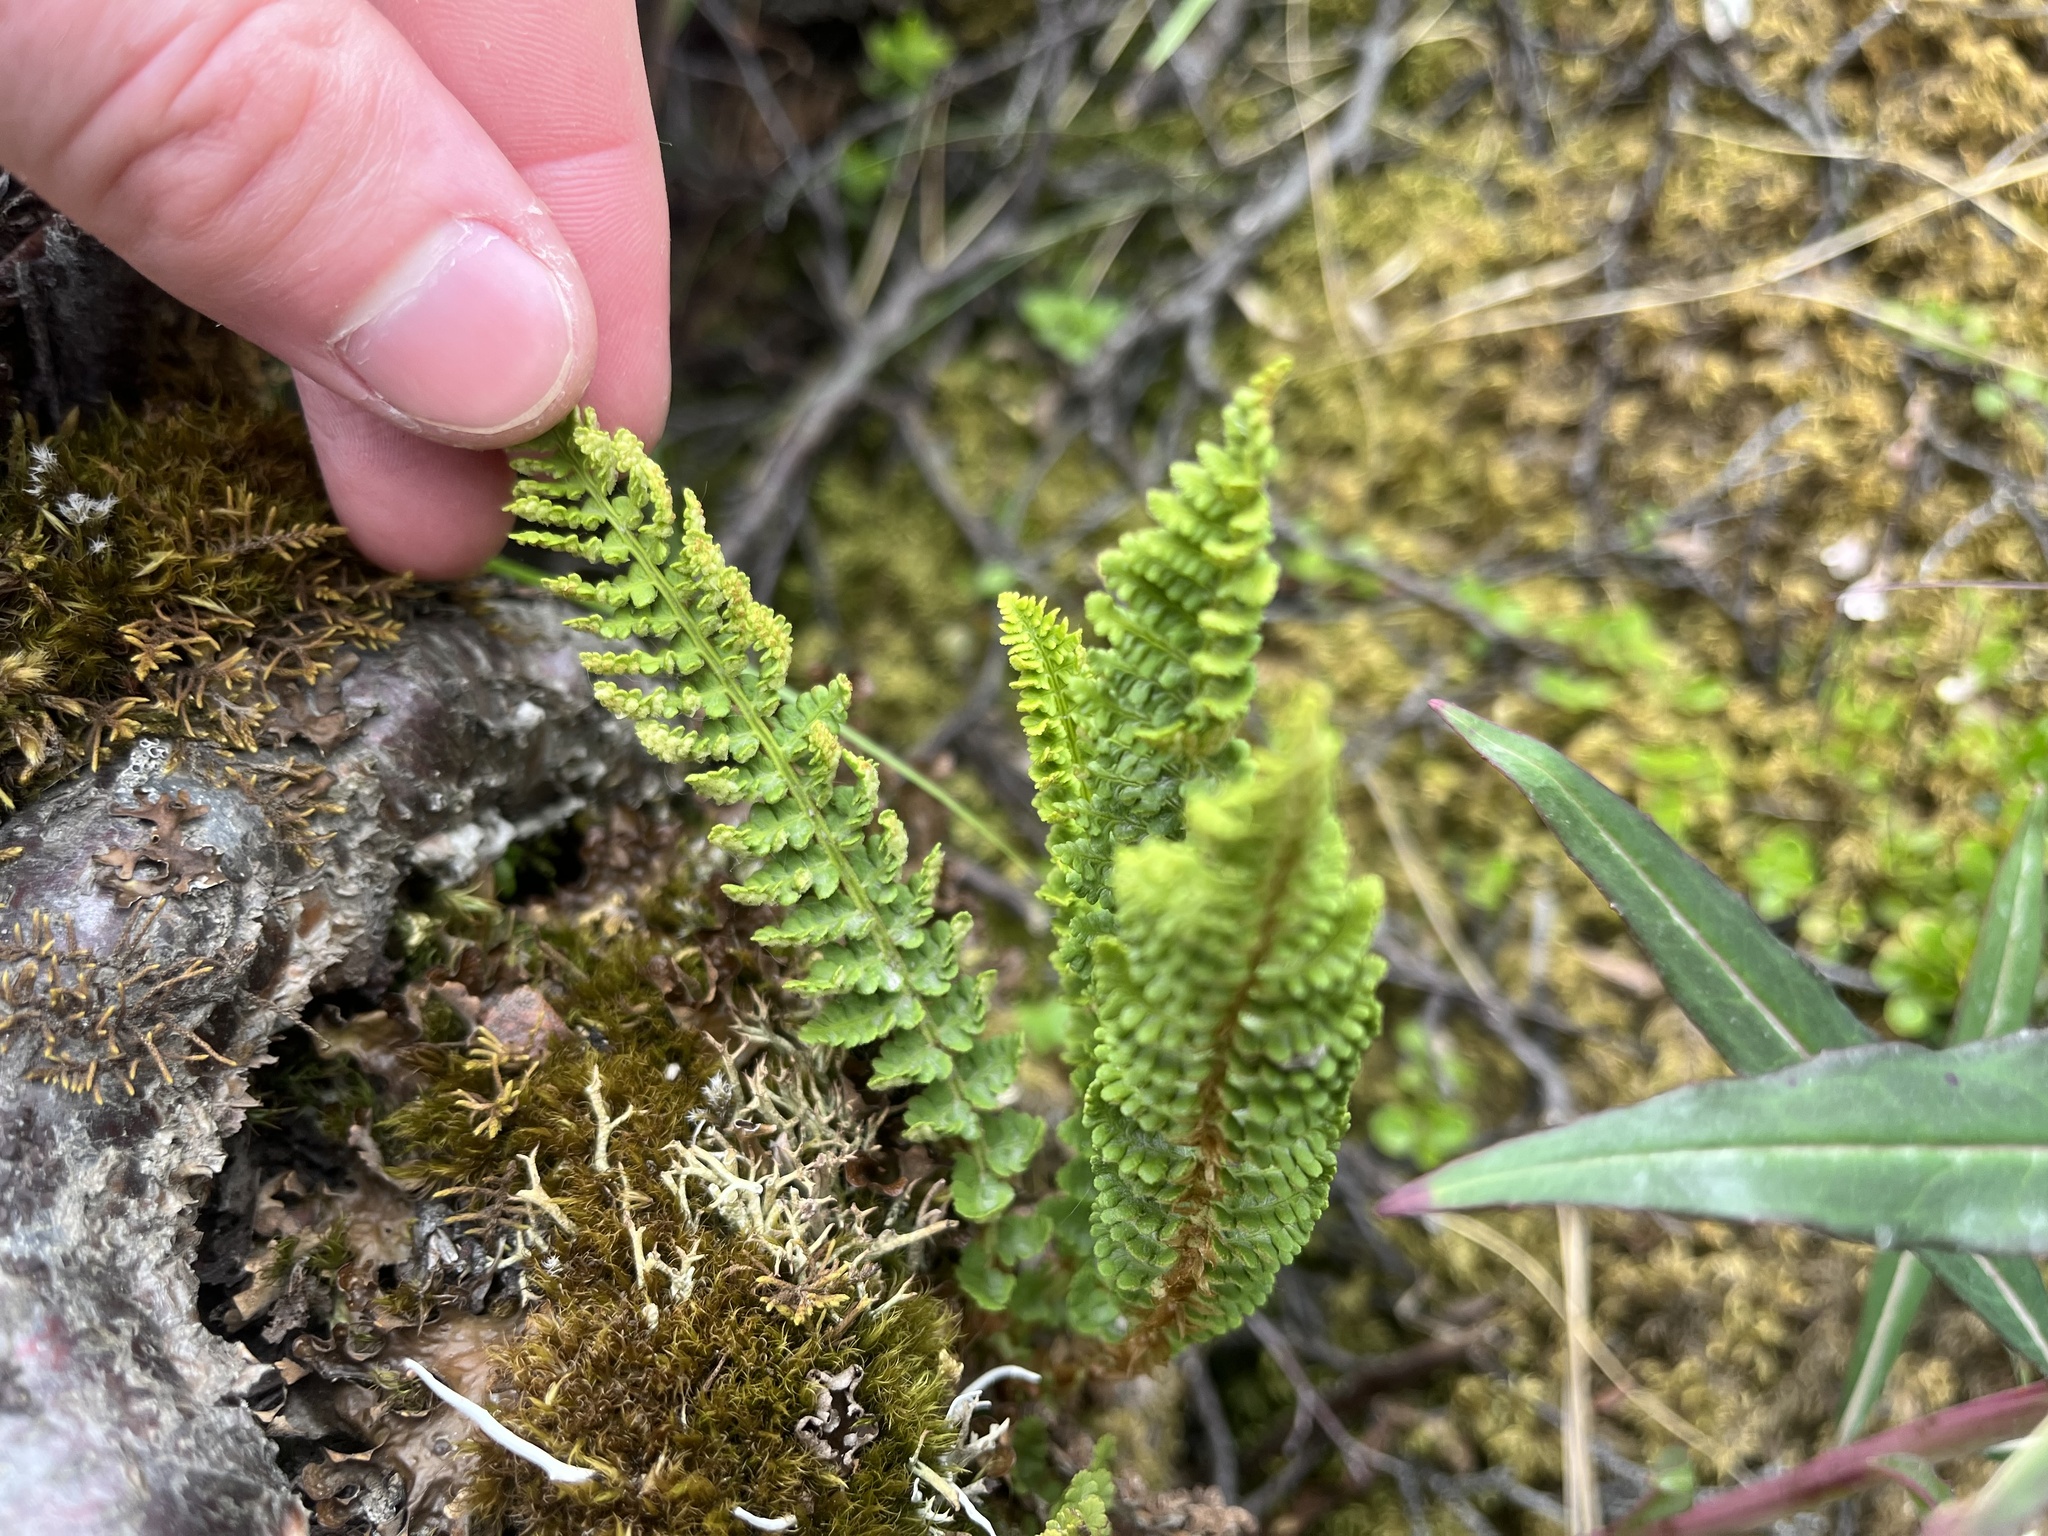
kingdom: Plantae
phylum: Tracheophyta
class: Polypodiopsida
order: Polypodiales
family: Dryopteridaceae
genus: Dryopteris
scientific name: Dryopteris fragrans
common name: Fragrant wood fern
